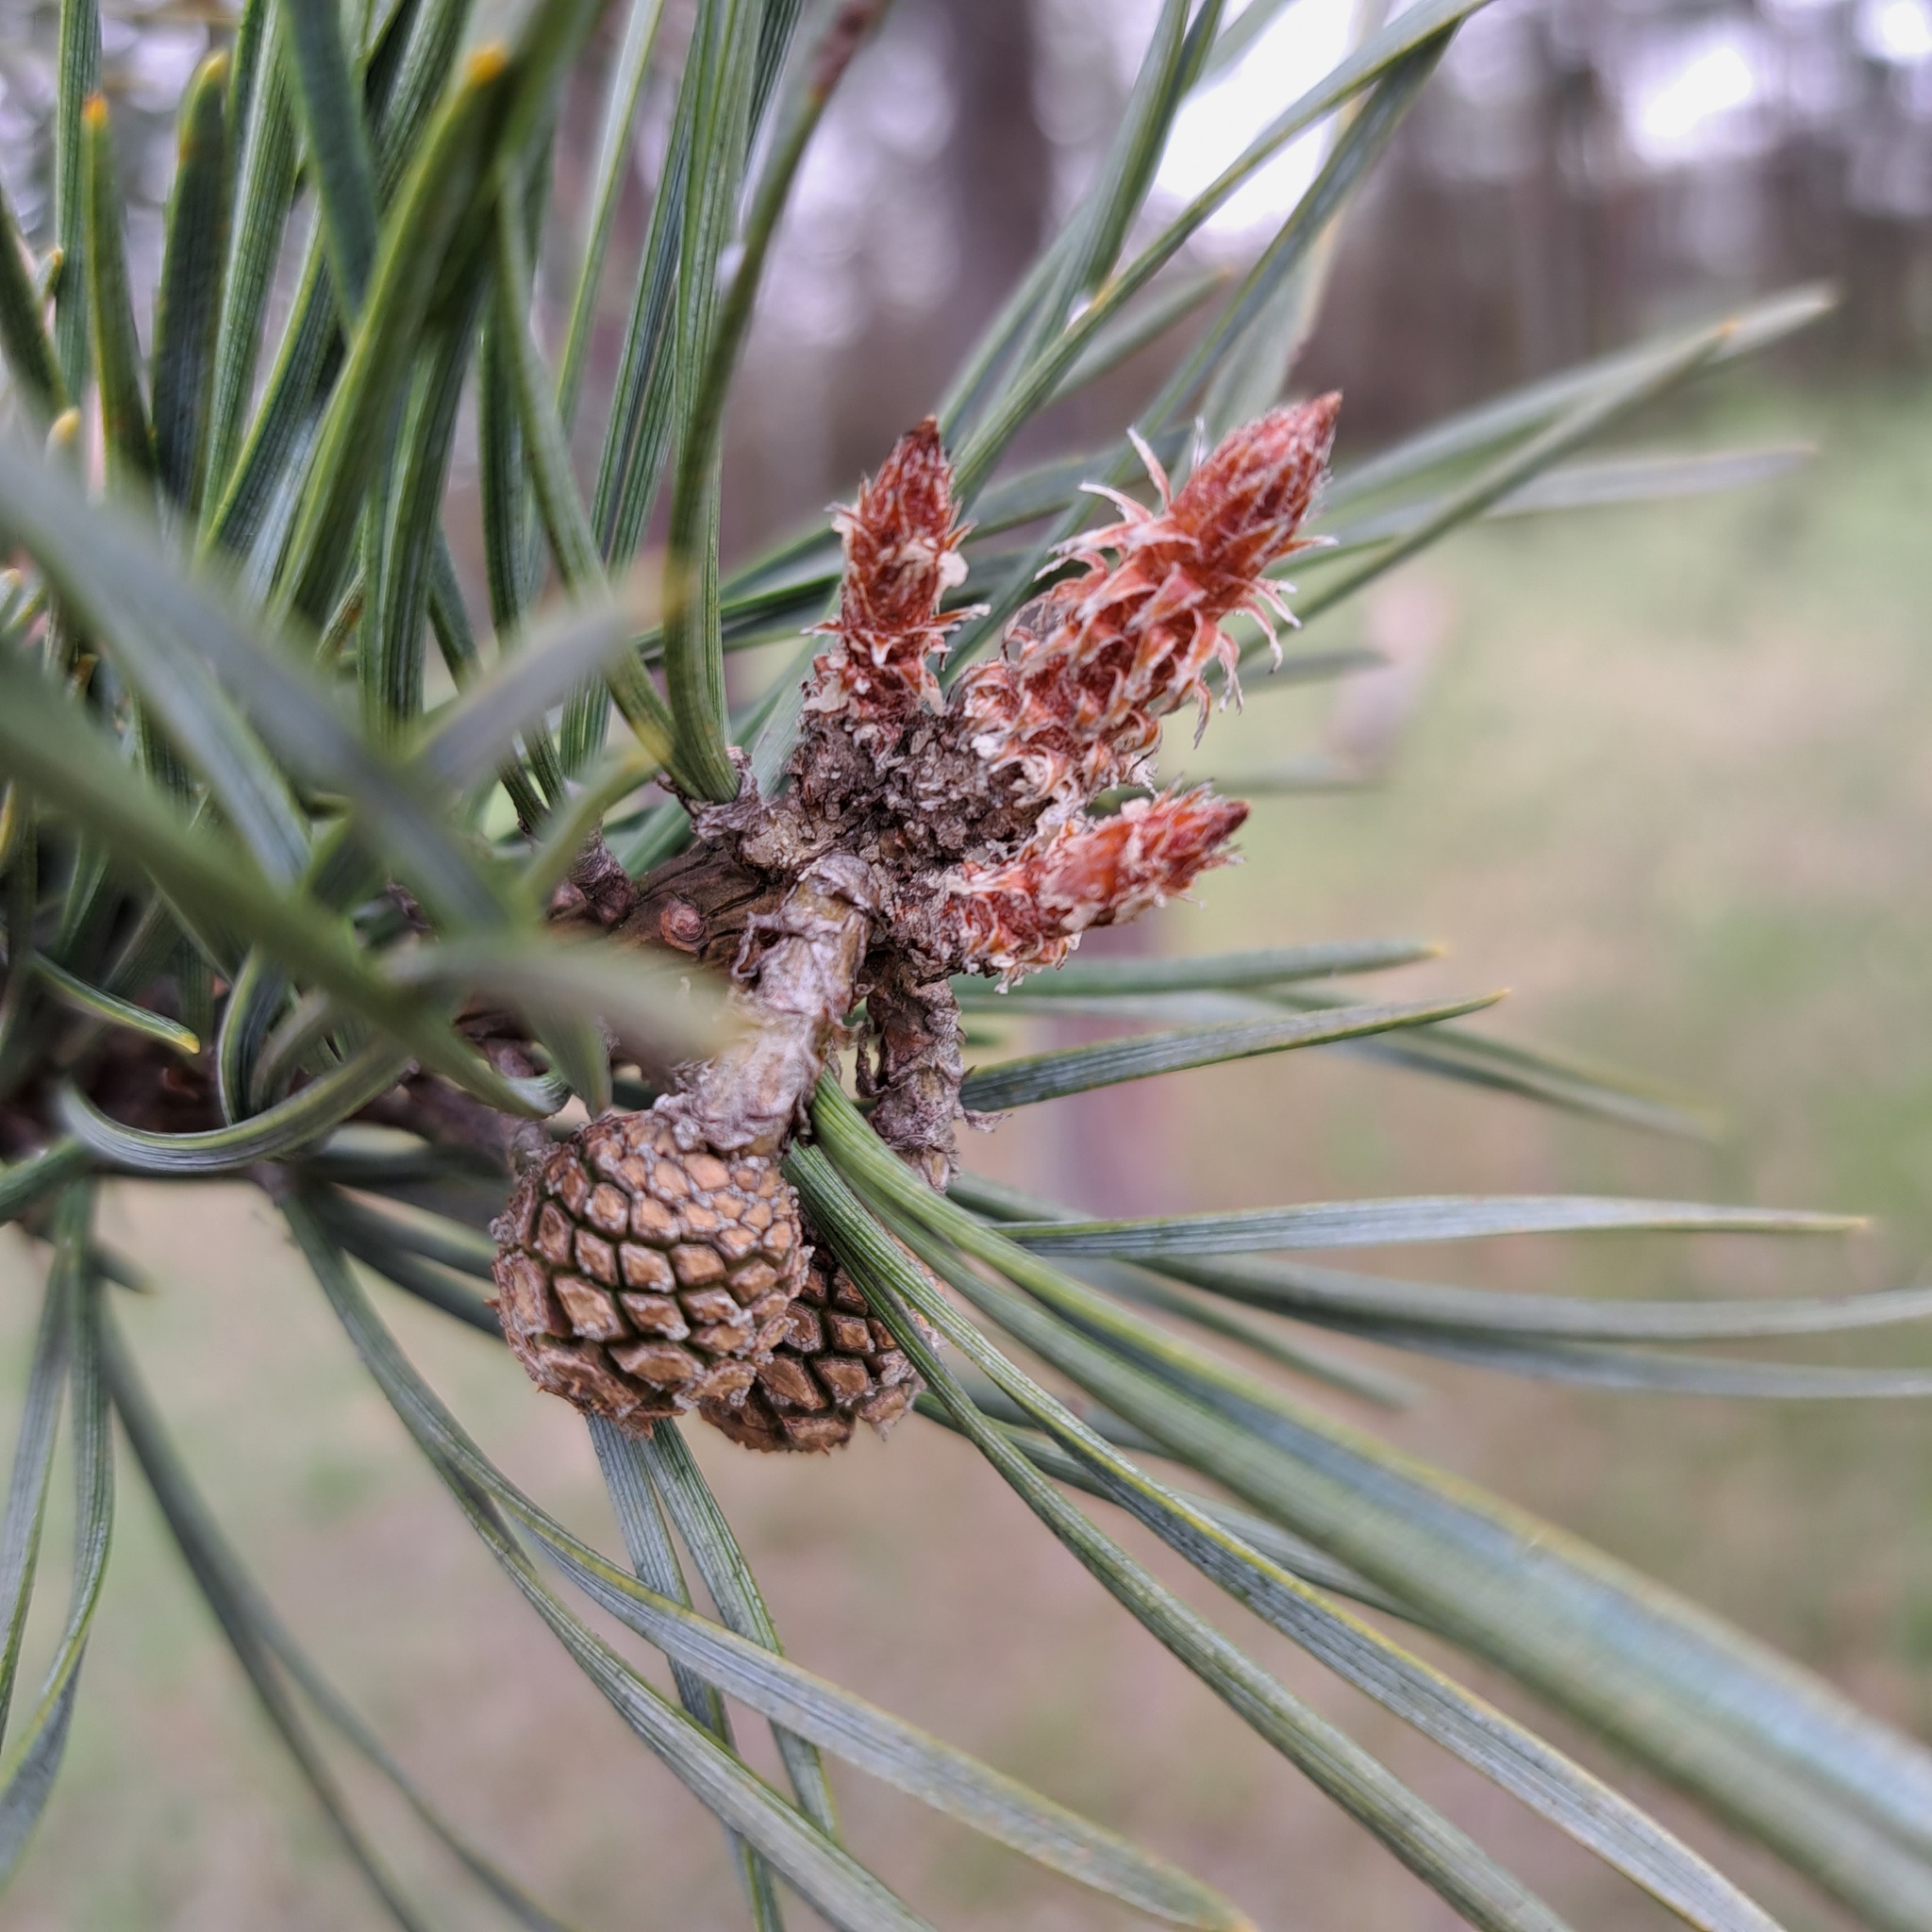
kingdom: Plantae
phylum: Tracheophyta
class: Pinopsida
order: Pinales
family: Pinaceae
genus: Pinus
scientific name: Pinus sylvestris
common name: Scots pine
